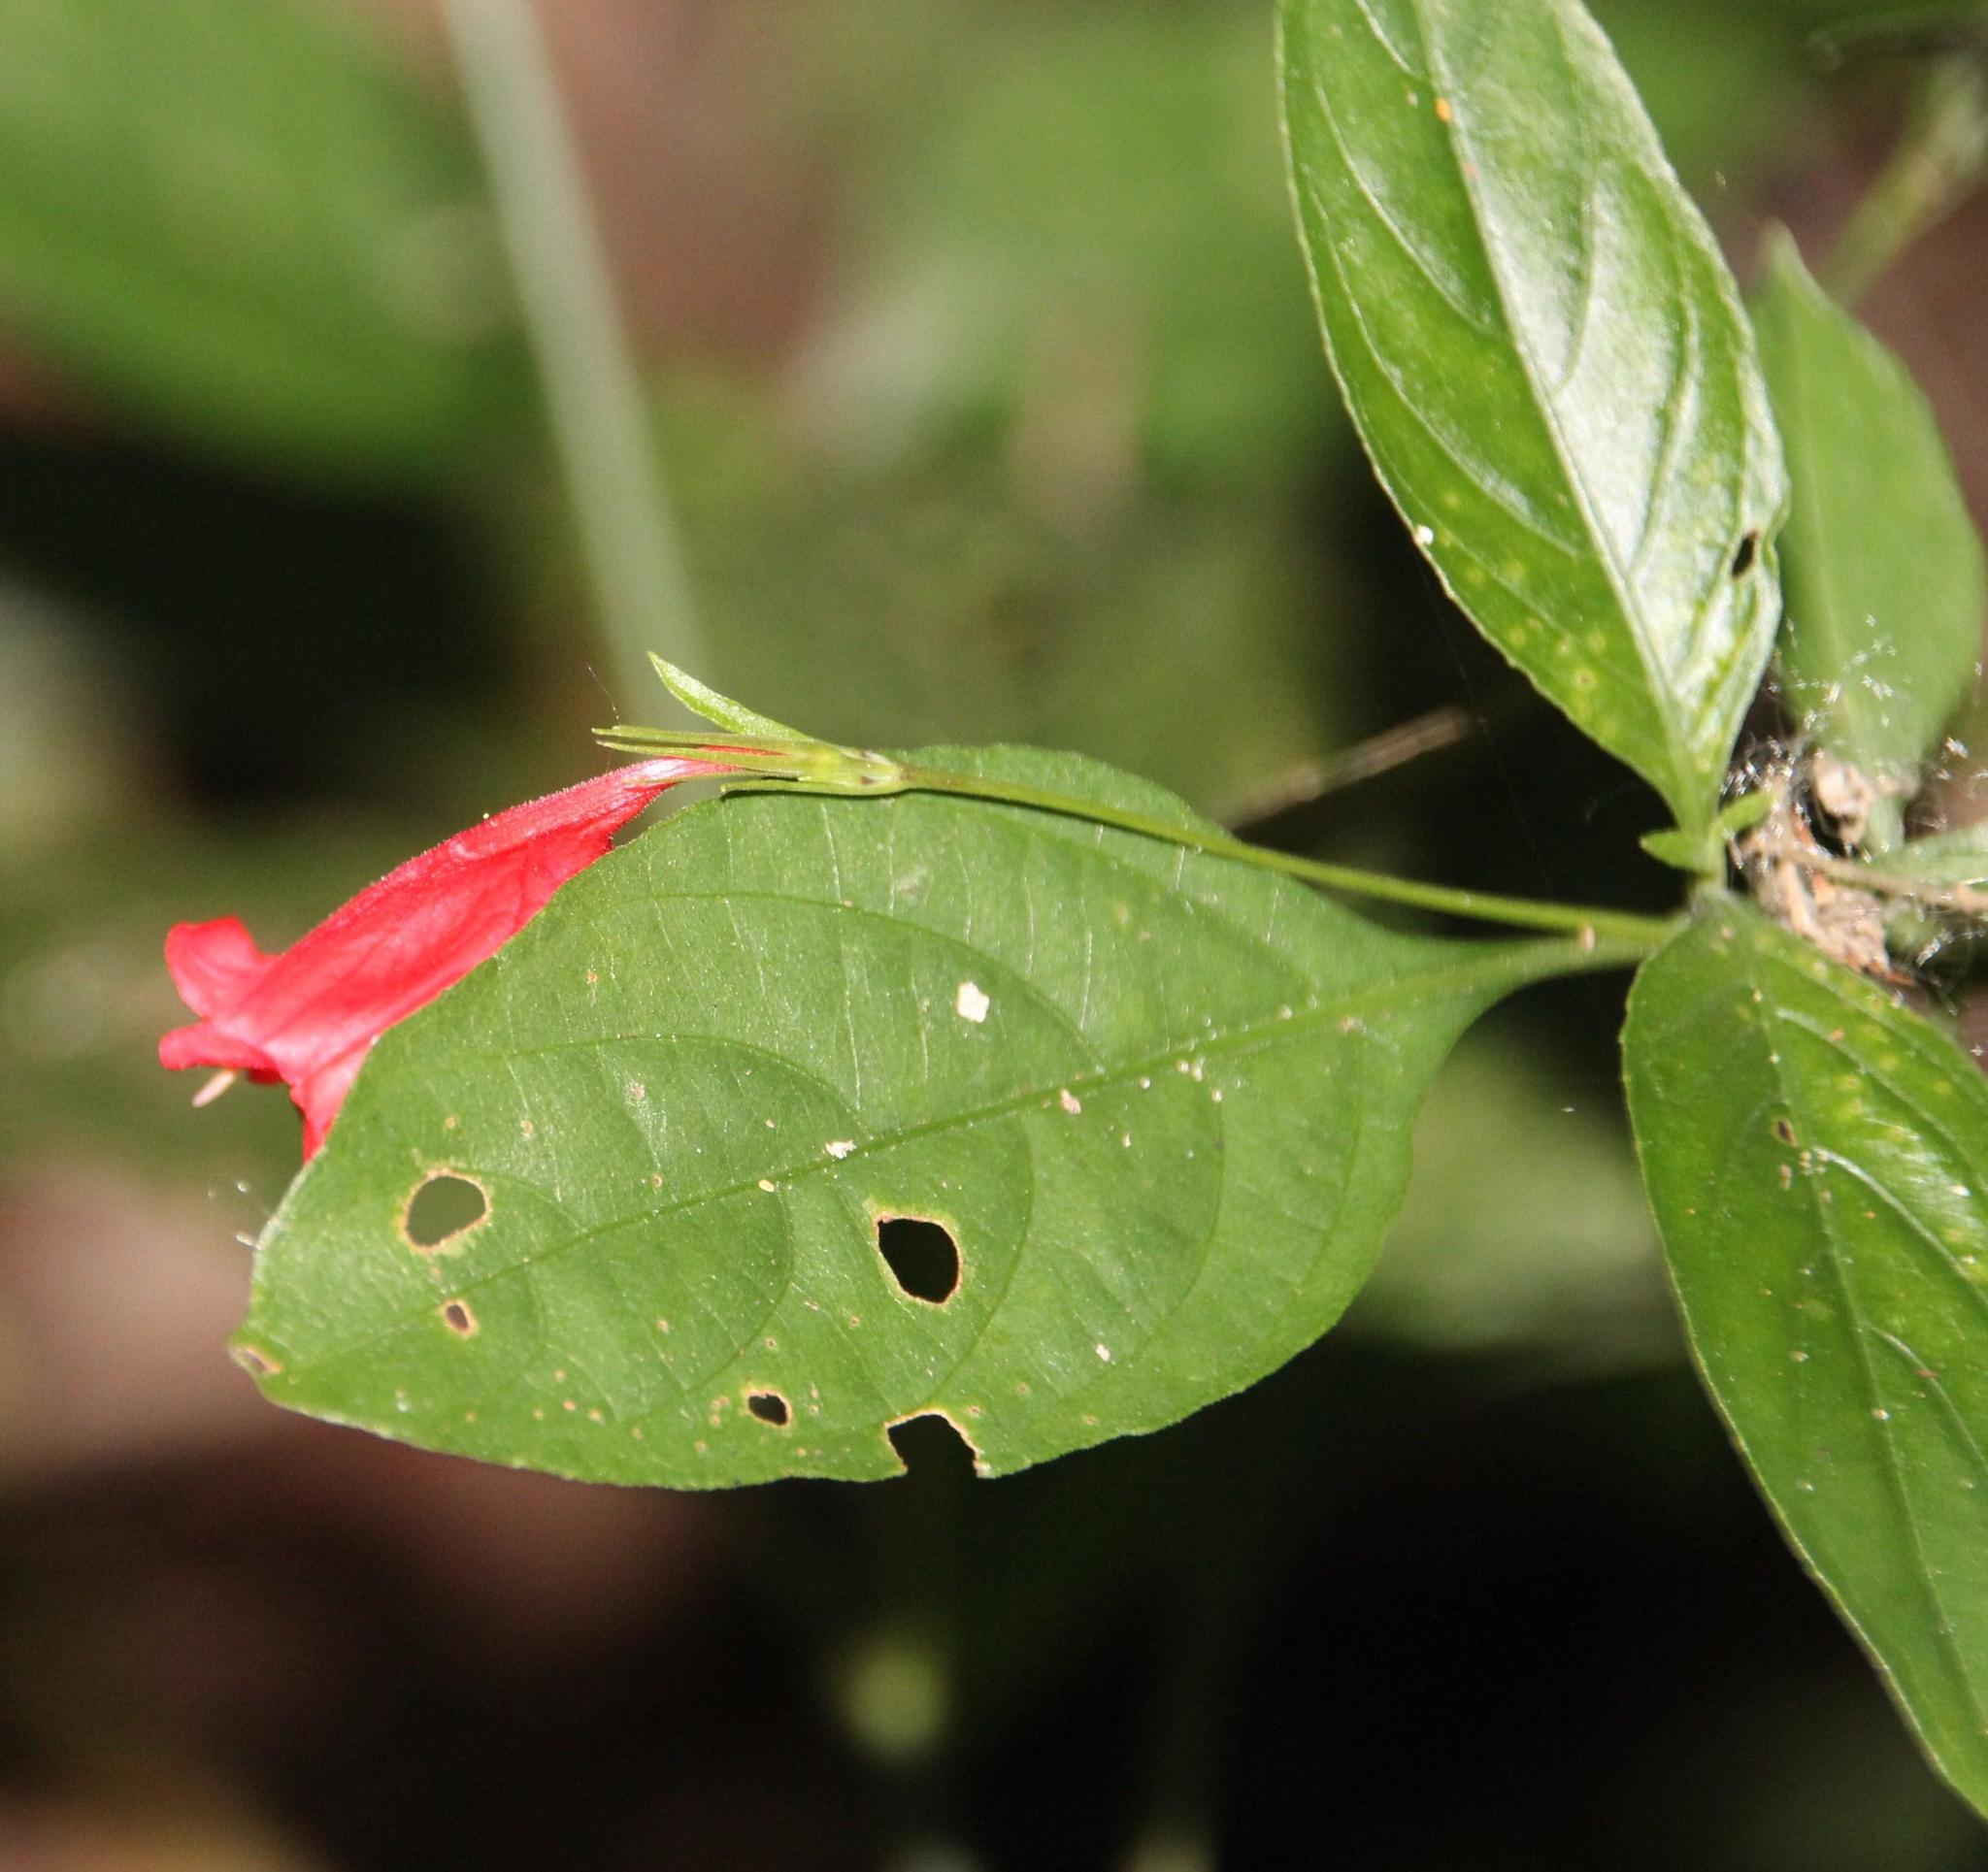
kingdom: Plantae
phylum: Tracheophyta
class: Magnoliopsida
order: Lamiales
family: Acanthaceae
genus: Ruellia
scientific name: Ruellia brevifolia
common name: Tropical wild petunia
